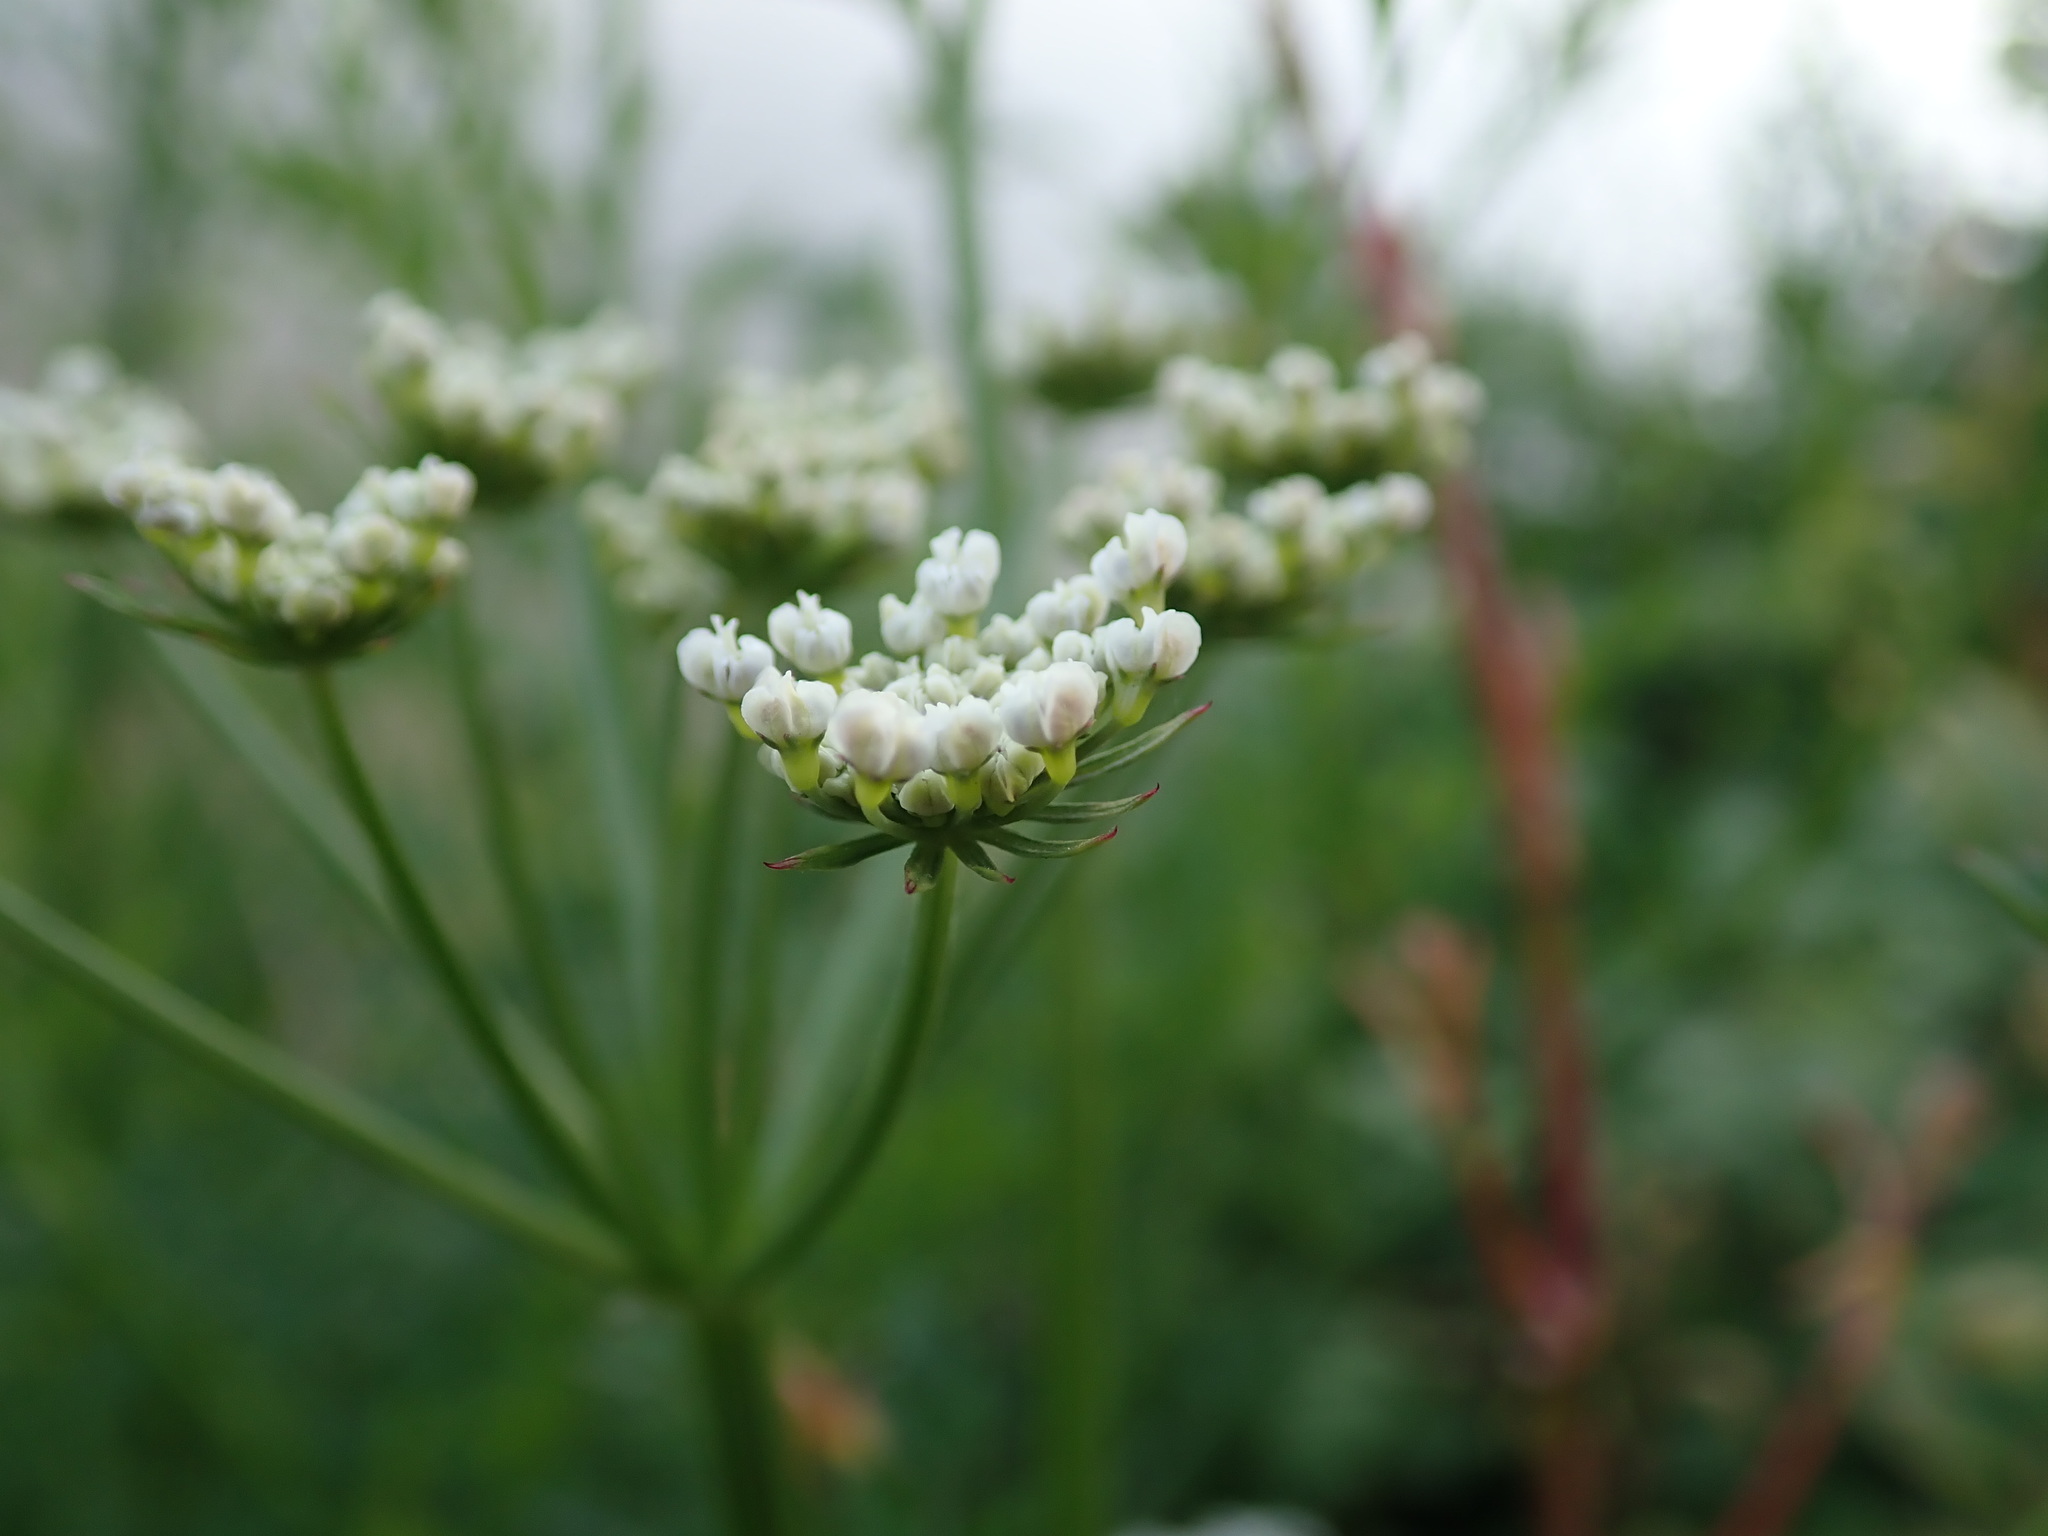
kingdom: Plantae
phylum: Tracheophyta
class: Magnoliopsida
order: Apiales
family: Apiaceae
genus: Oenanthe
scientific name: Oenanthe crocata
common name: Hemlock water-dropwort
